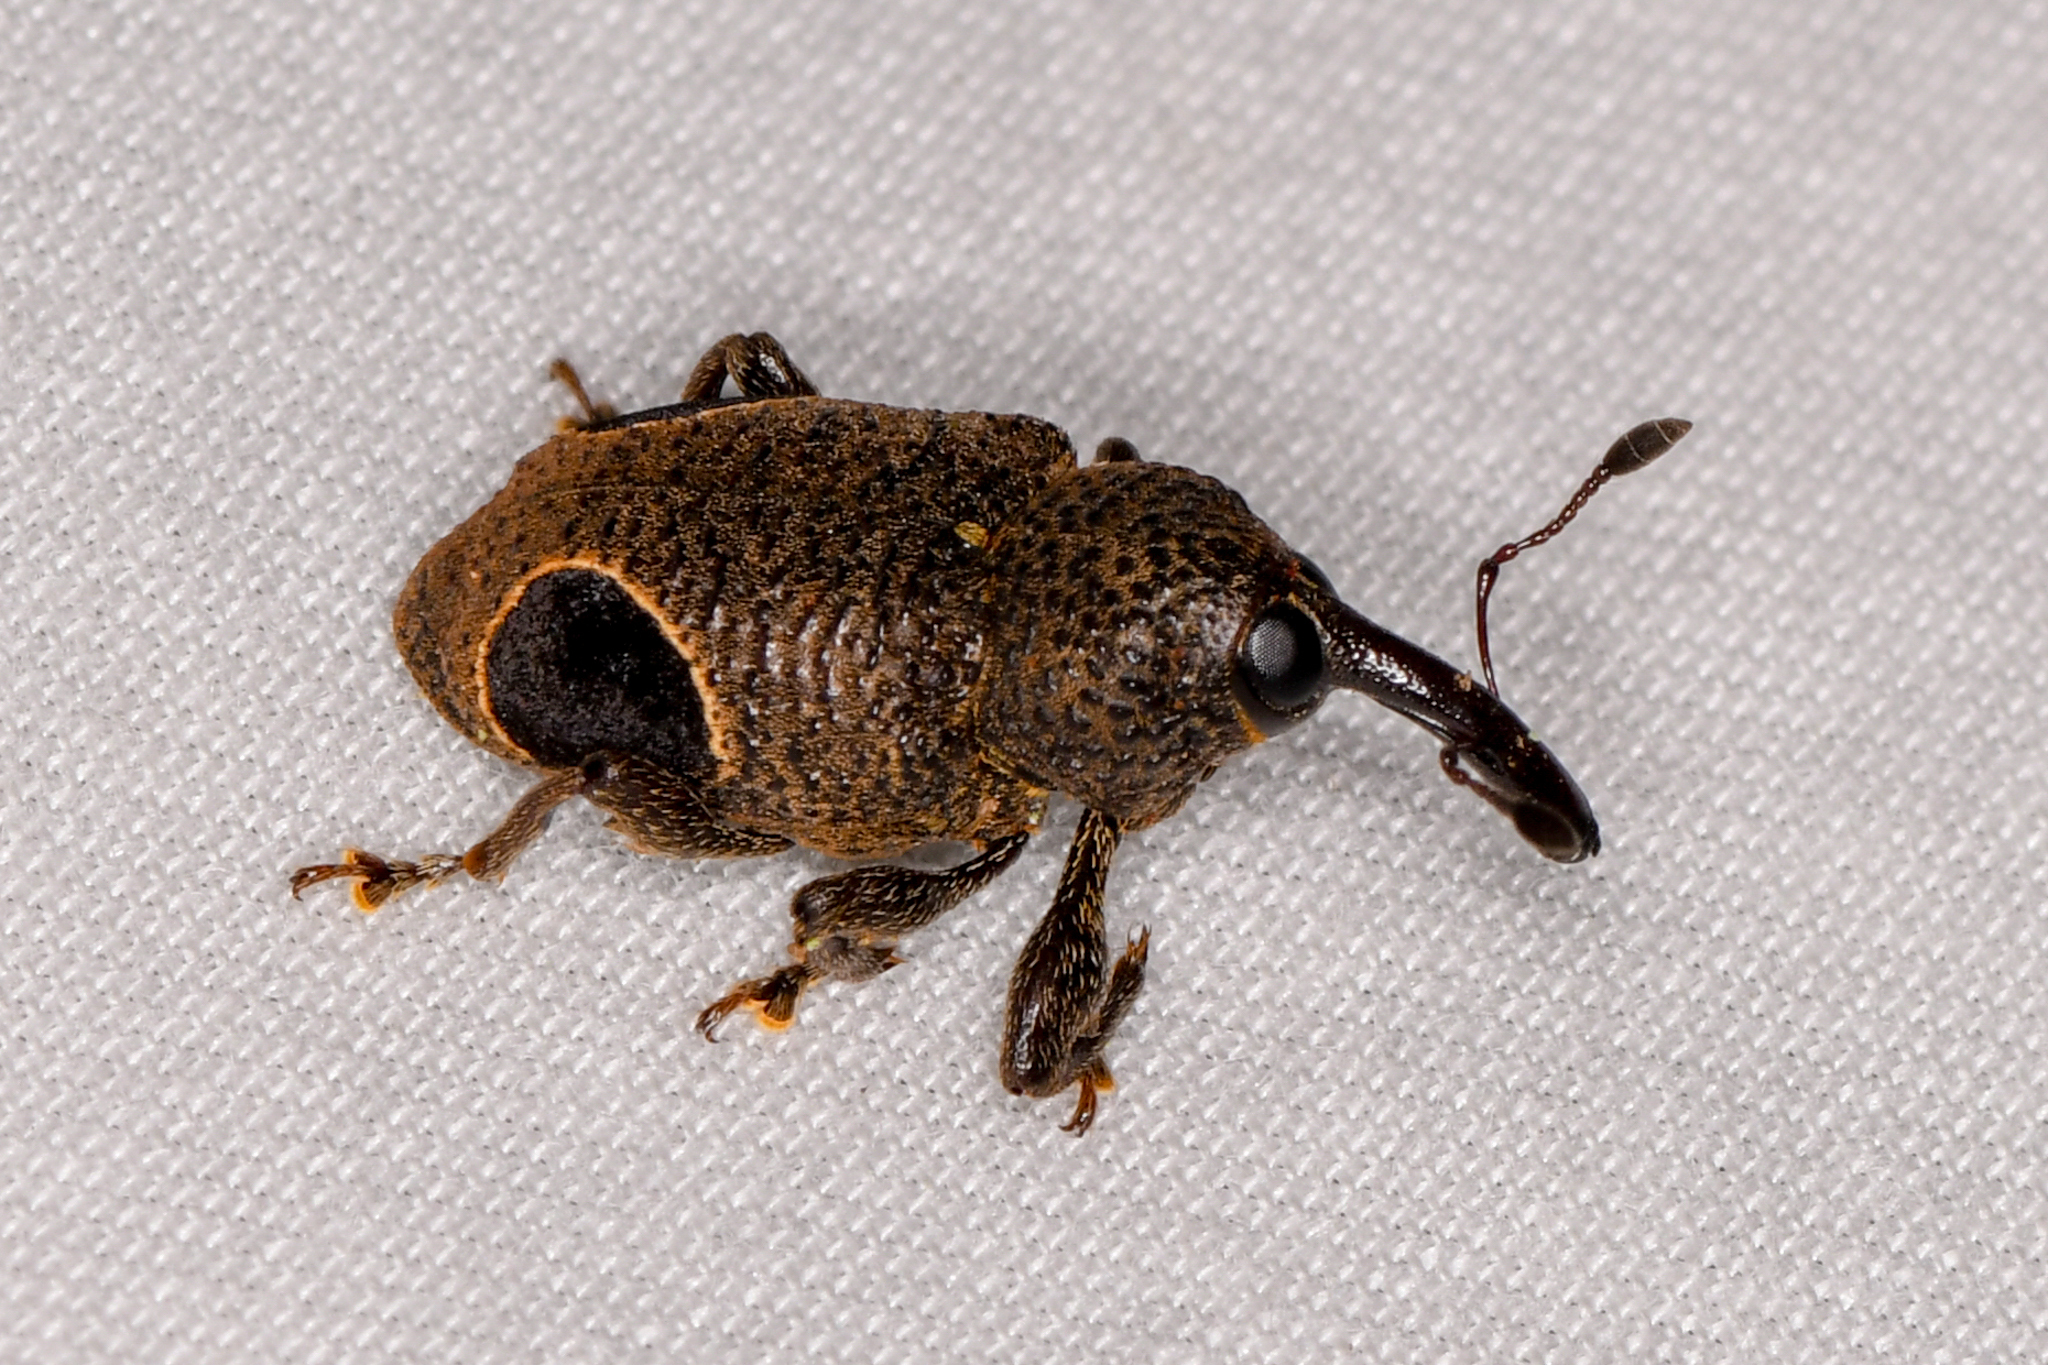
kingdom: Animalia
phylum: Arthropoda
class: Insecta
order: Coleoptera
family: Curculionidae
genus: Heilipodus
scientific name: Heilipodus nigrooculatus
